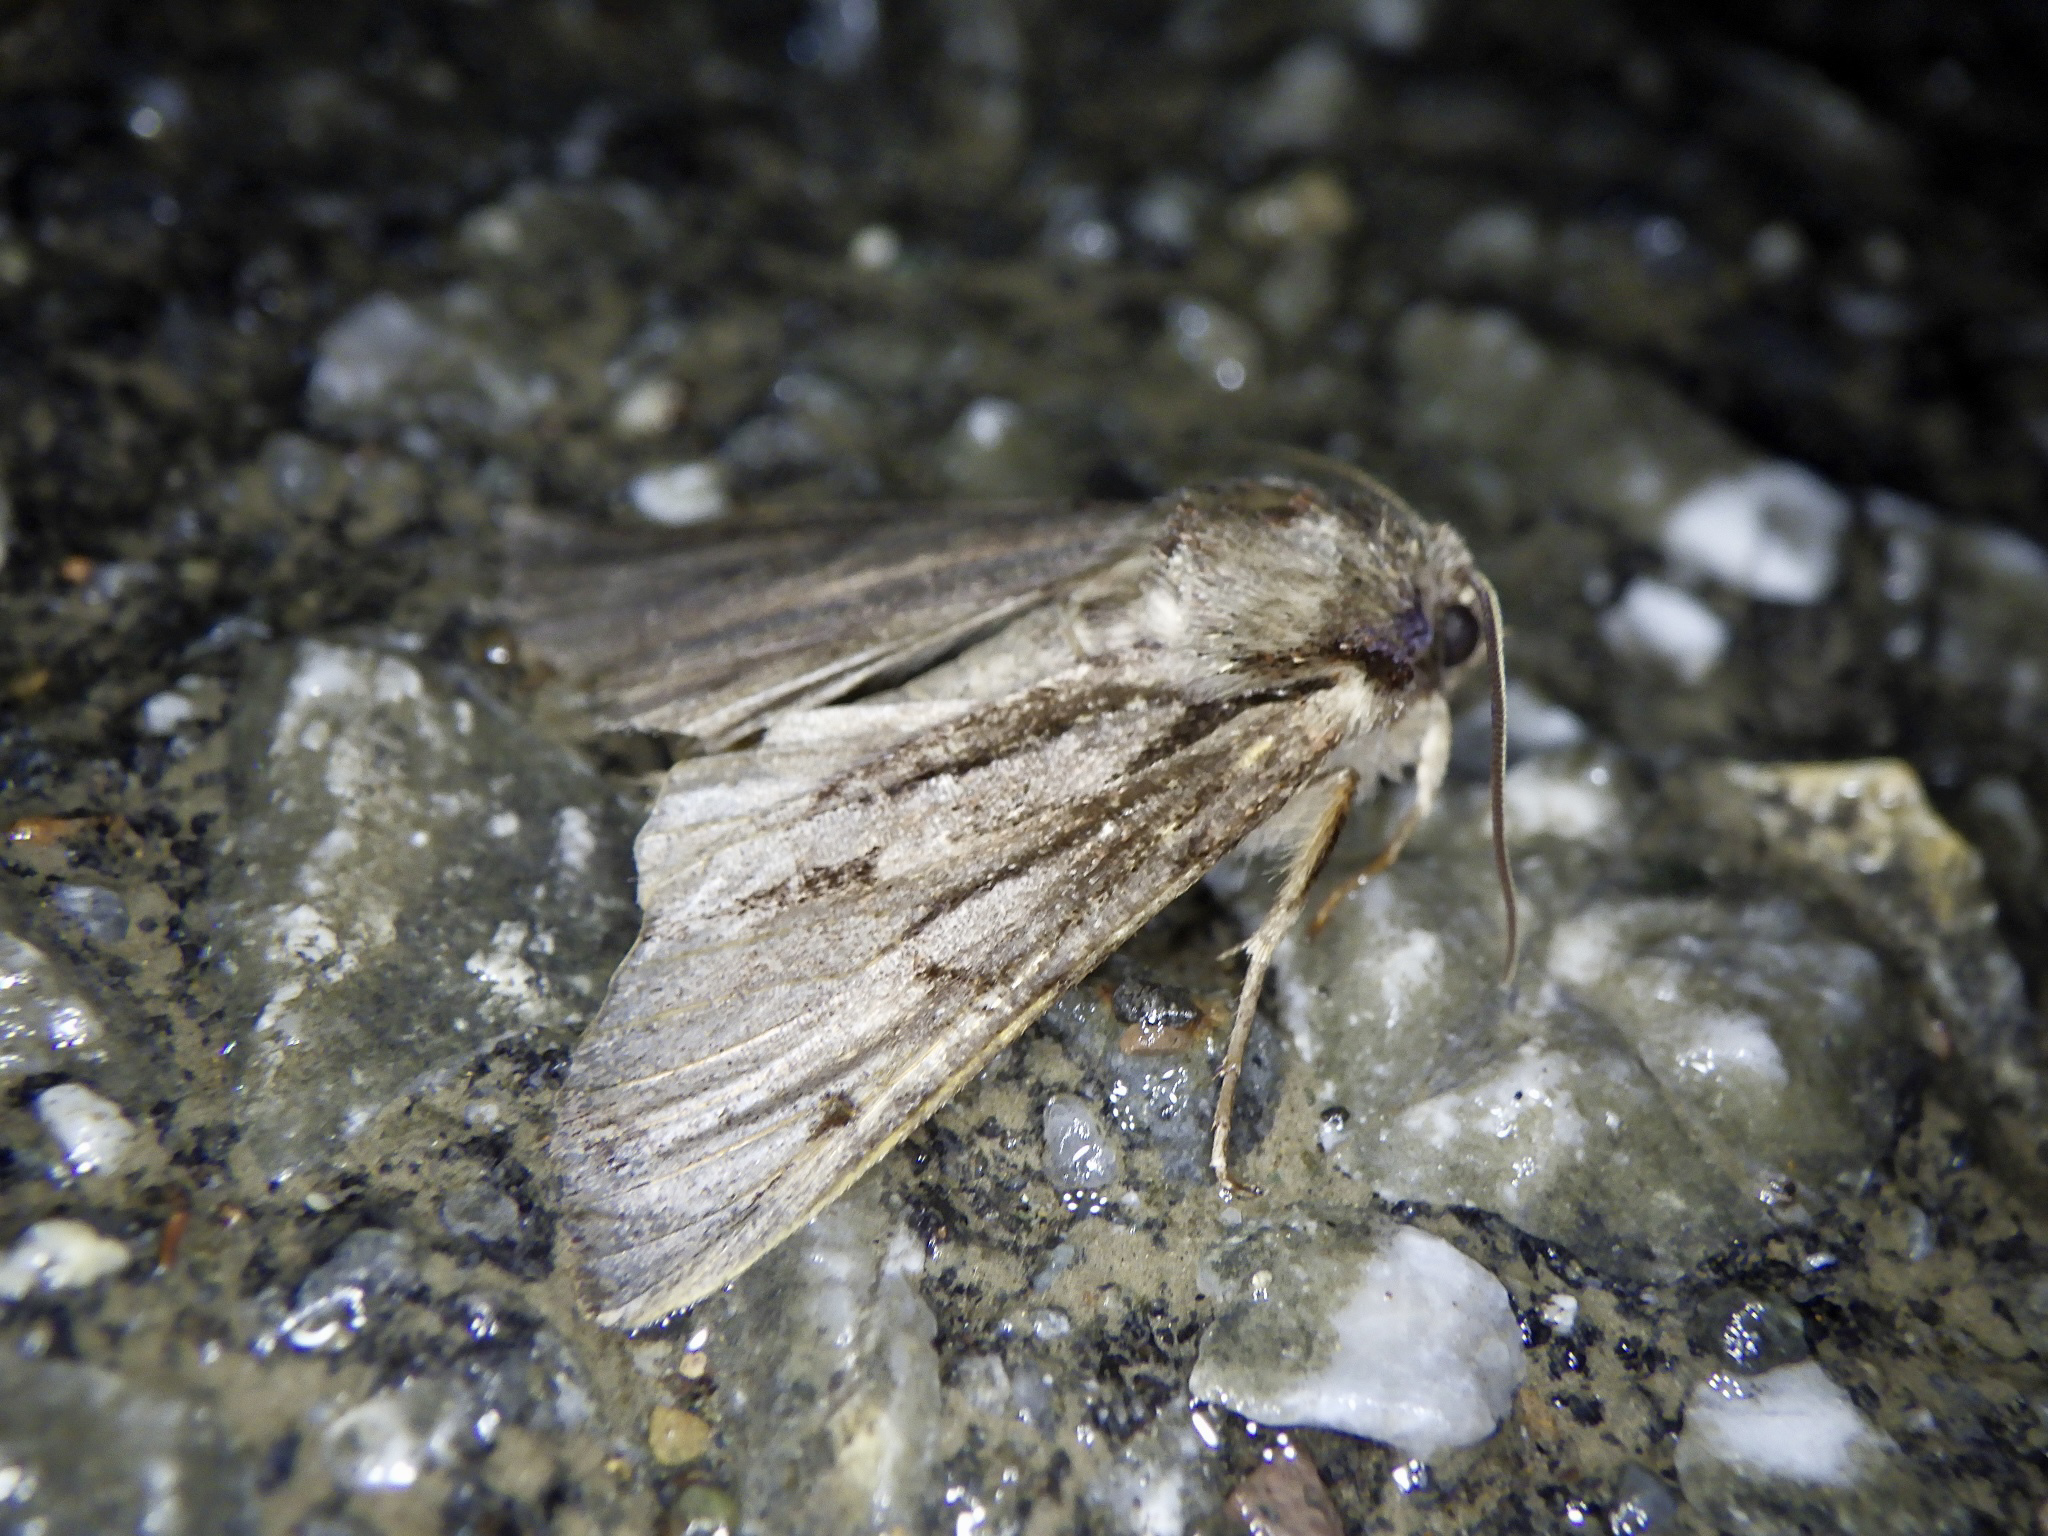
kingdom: Animalia
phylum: Arthropoda
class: Insecta
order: Lepidoptera
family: Noctuidae
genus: Egira
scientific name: Egira saxea
